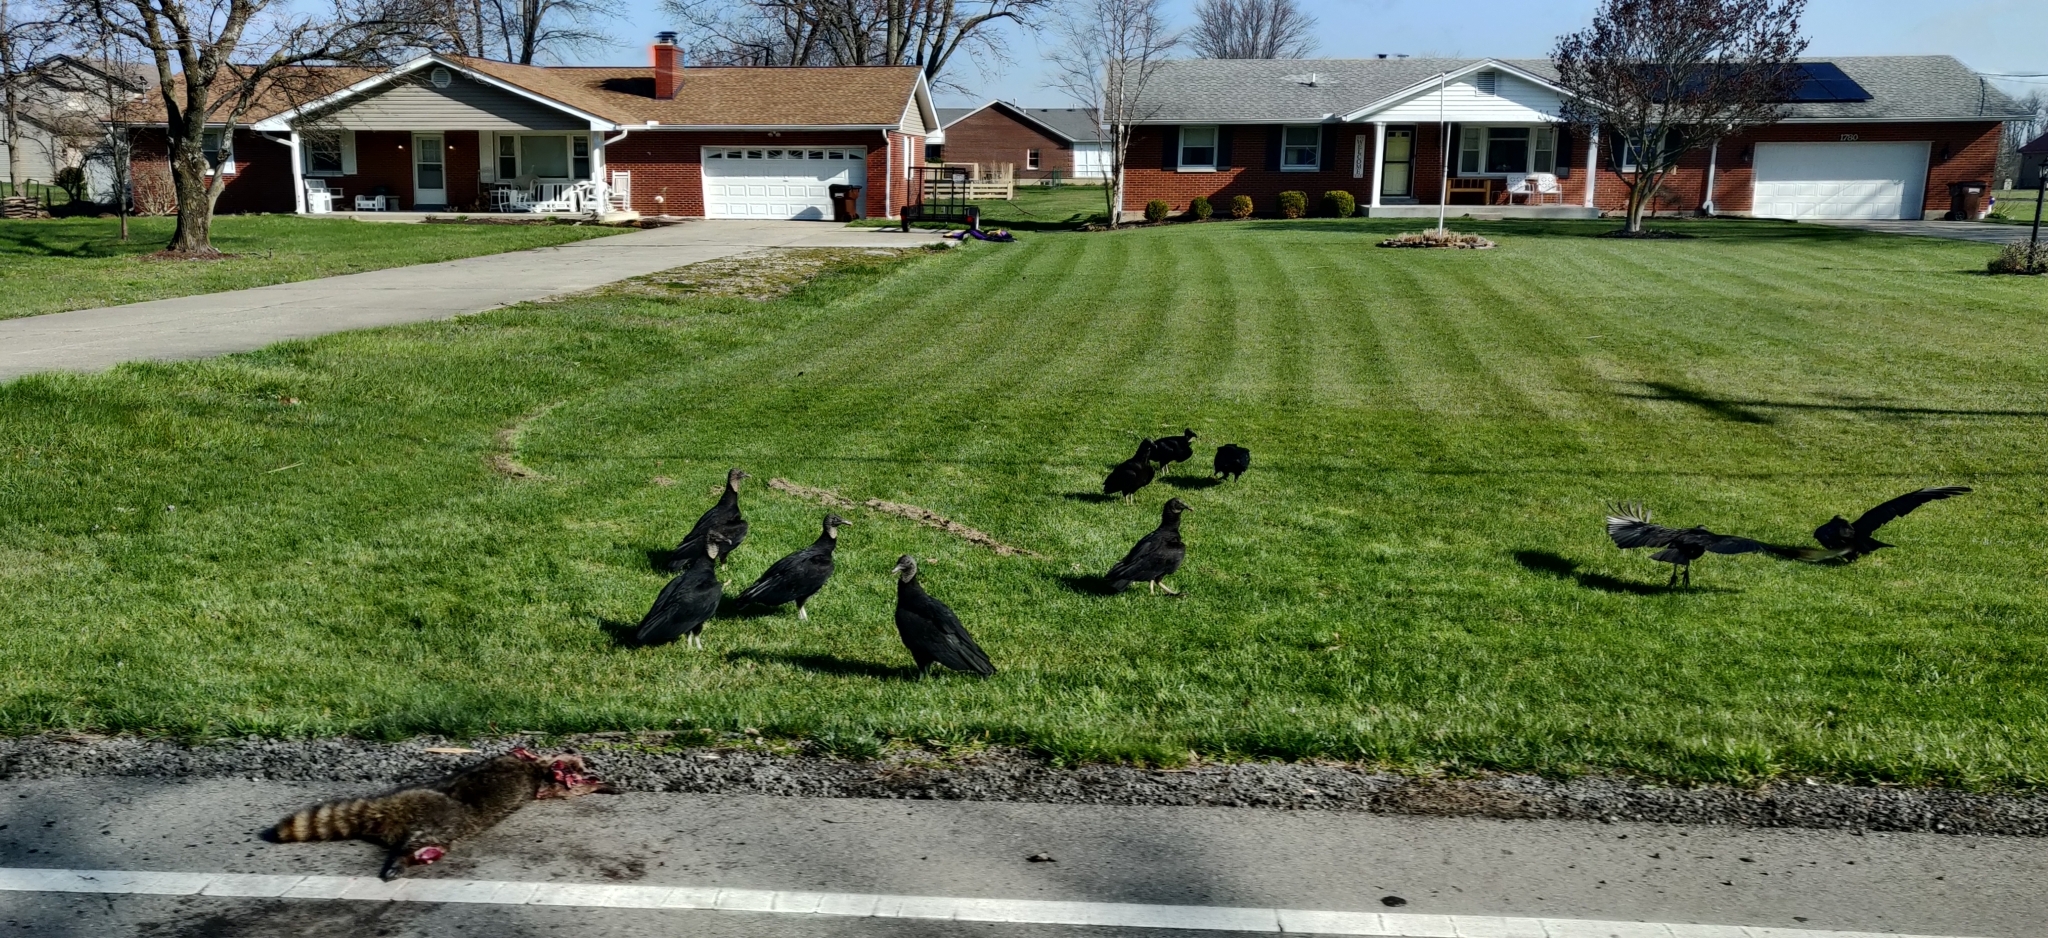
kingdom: Animalia
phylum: Chordata
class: Aves
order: Accipitriformes
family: Cathartidae
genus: Coragyps
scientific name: Coragyps atratus
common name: Black vulture
